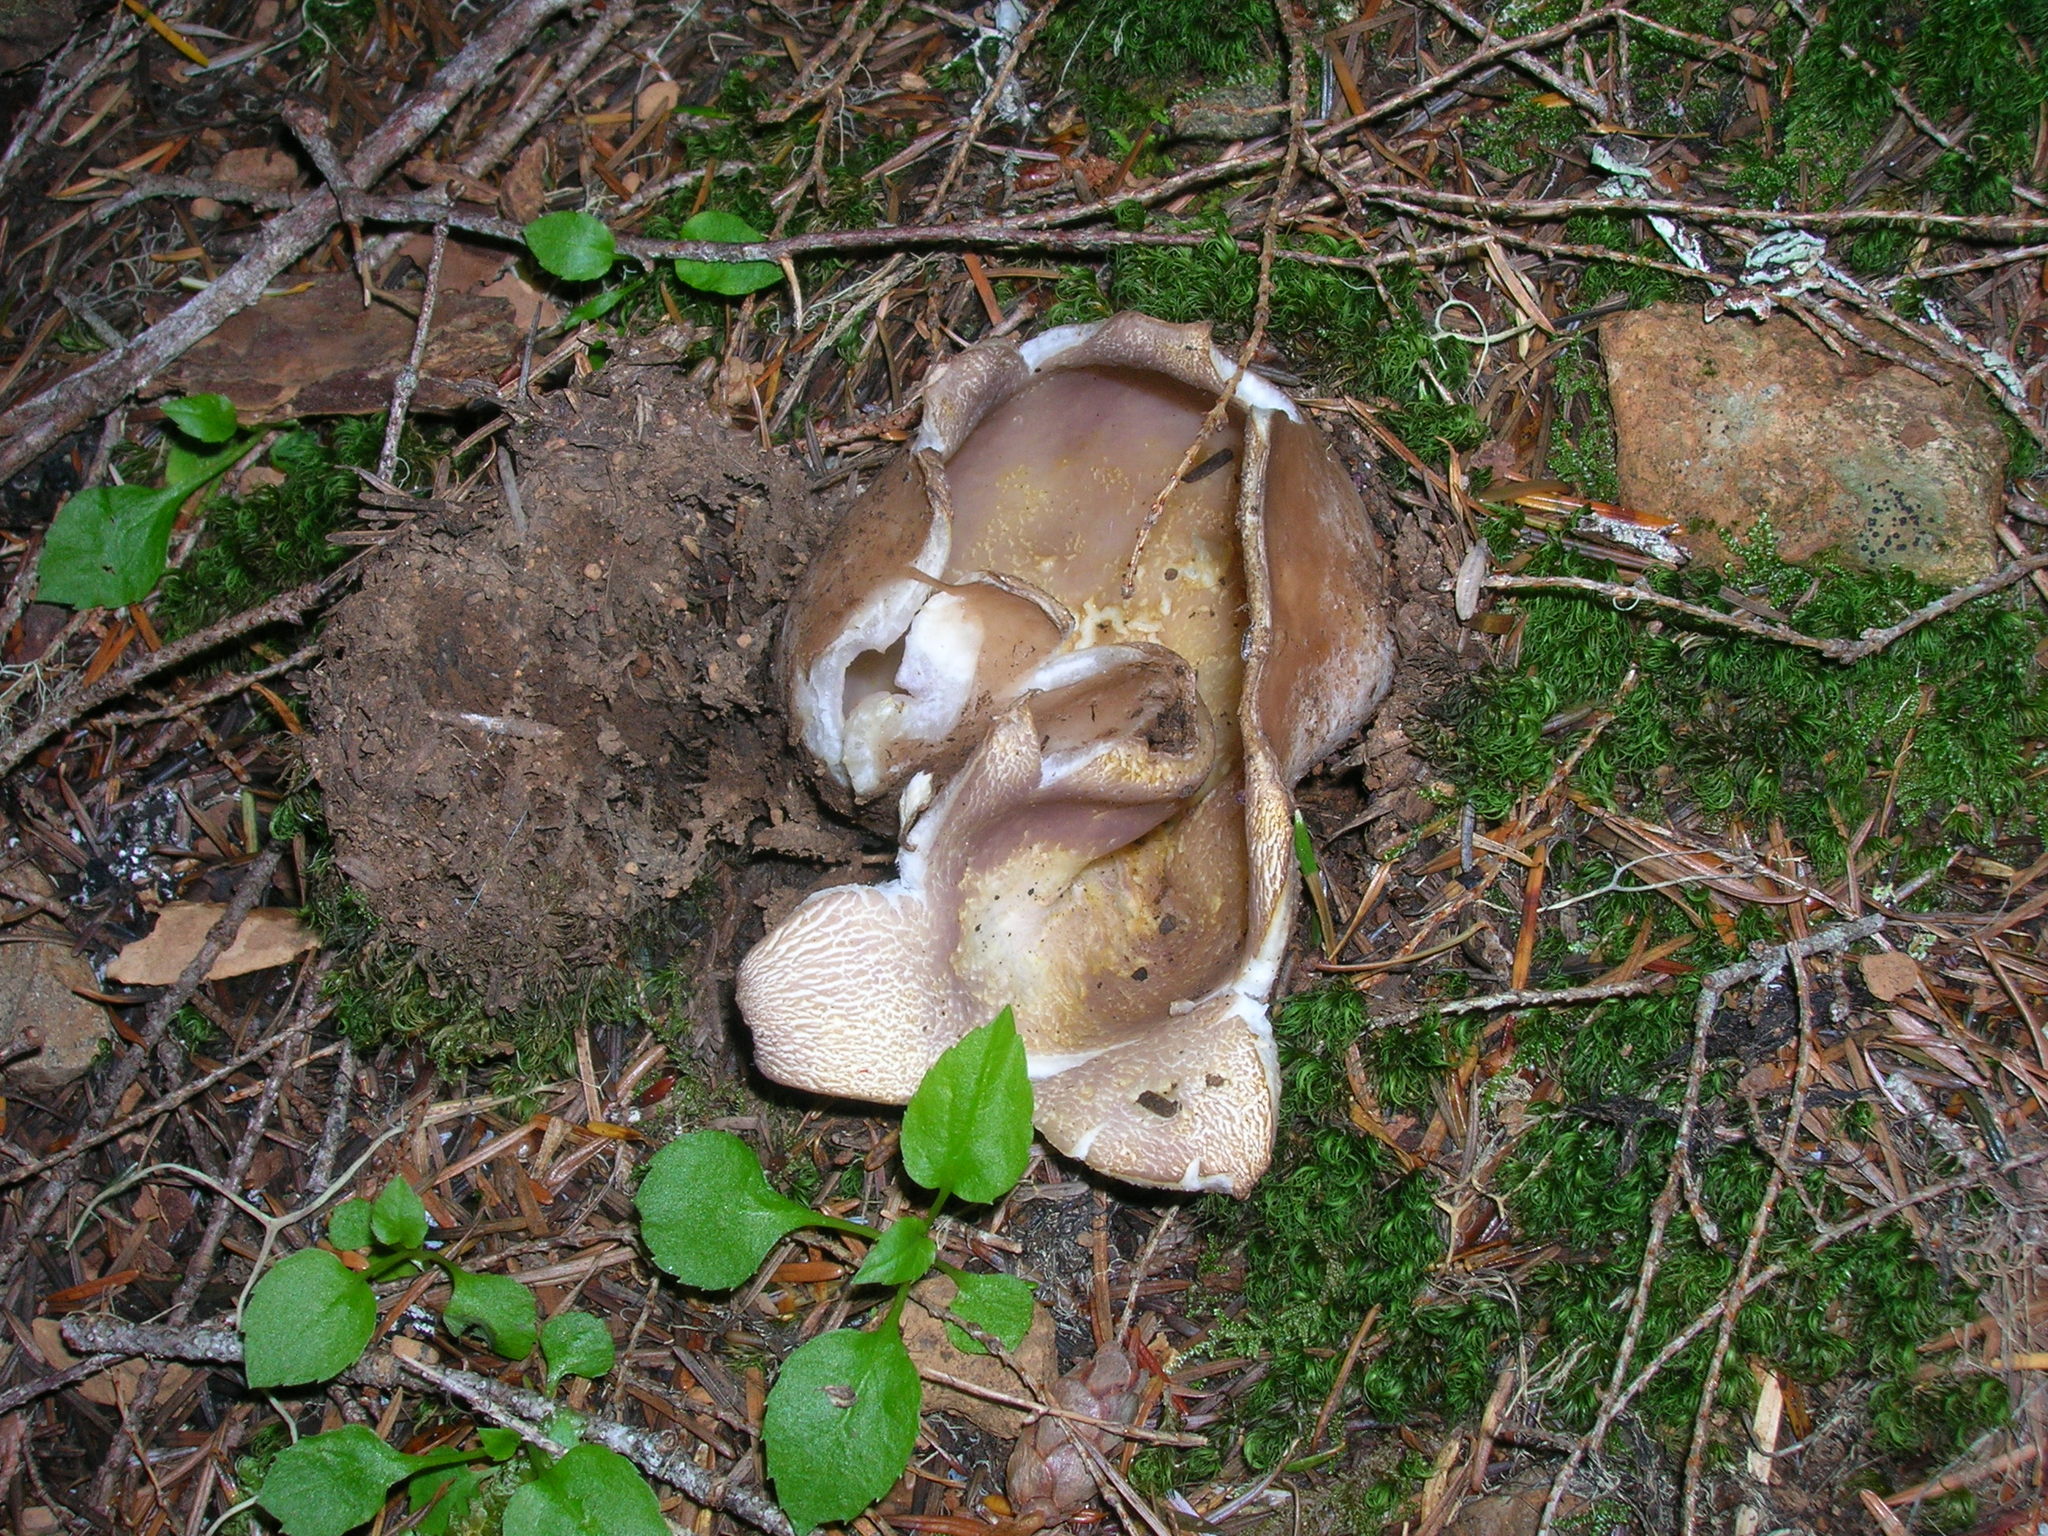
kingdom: Fungi
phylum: Ascomycota
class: Pezizomycetes
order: Pezizales
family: Pezizaceae
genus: Sarcosphaera
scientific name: Sarcosphaera coronaria
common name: Violet crowncup
